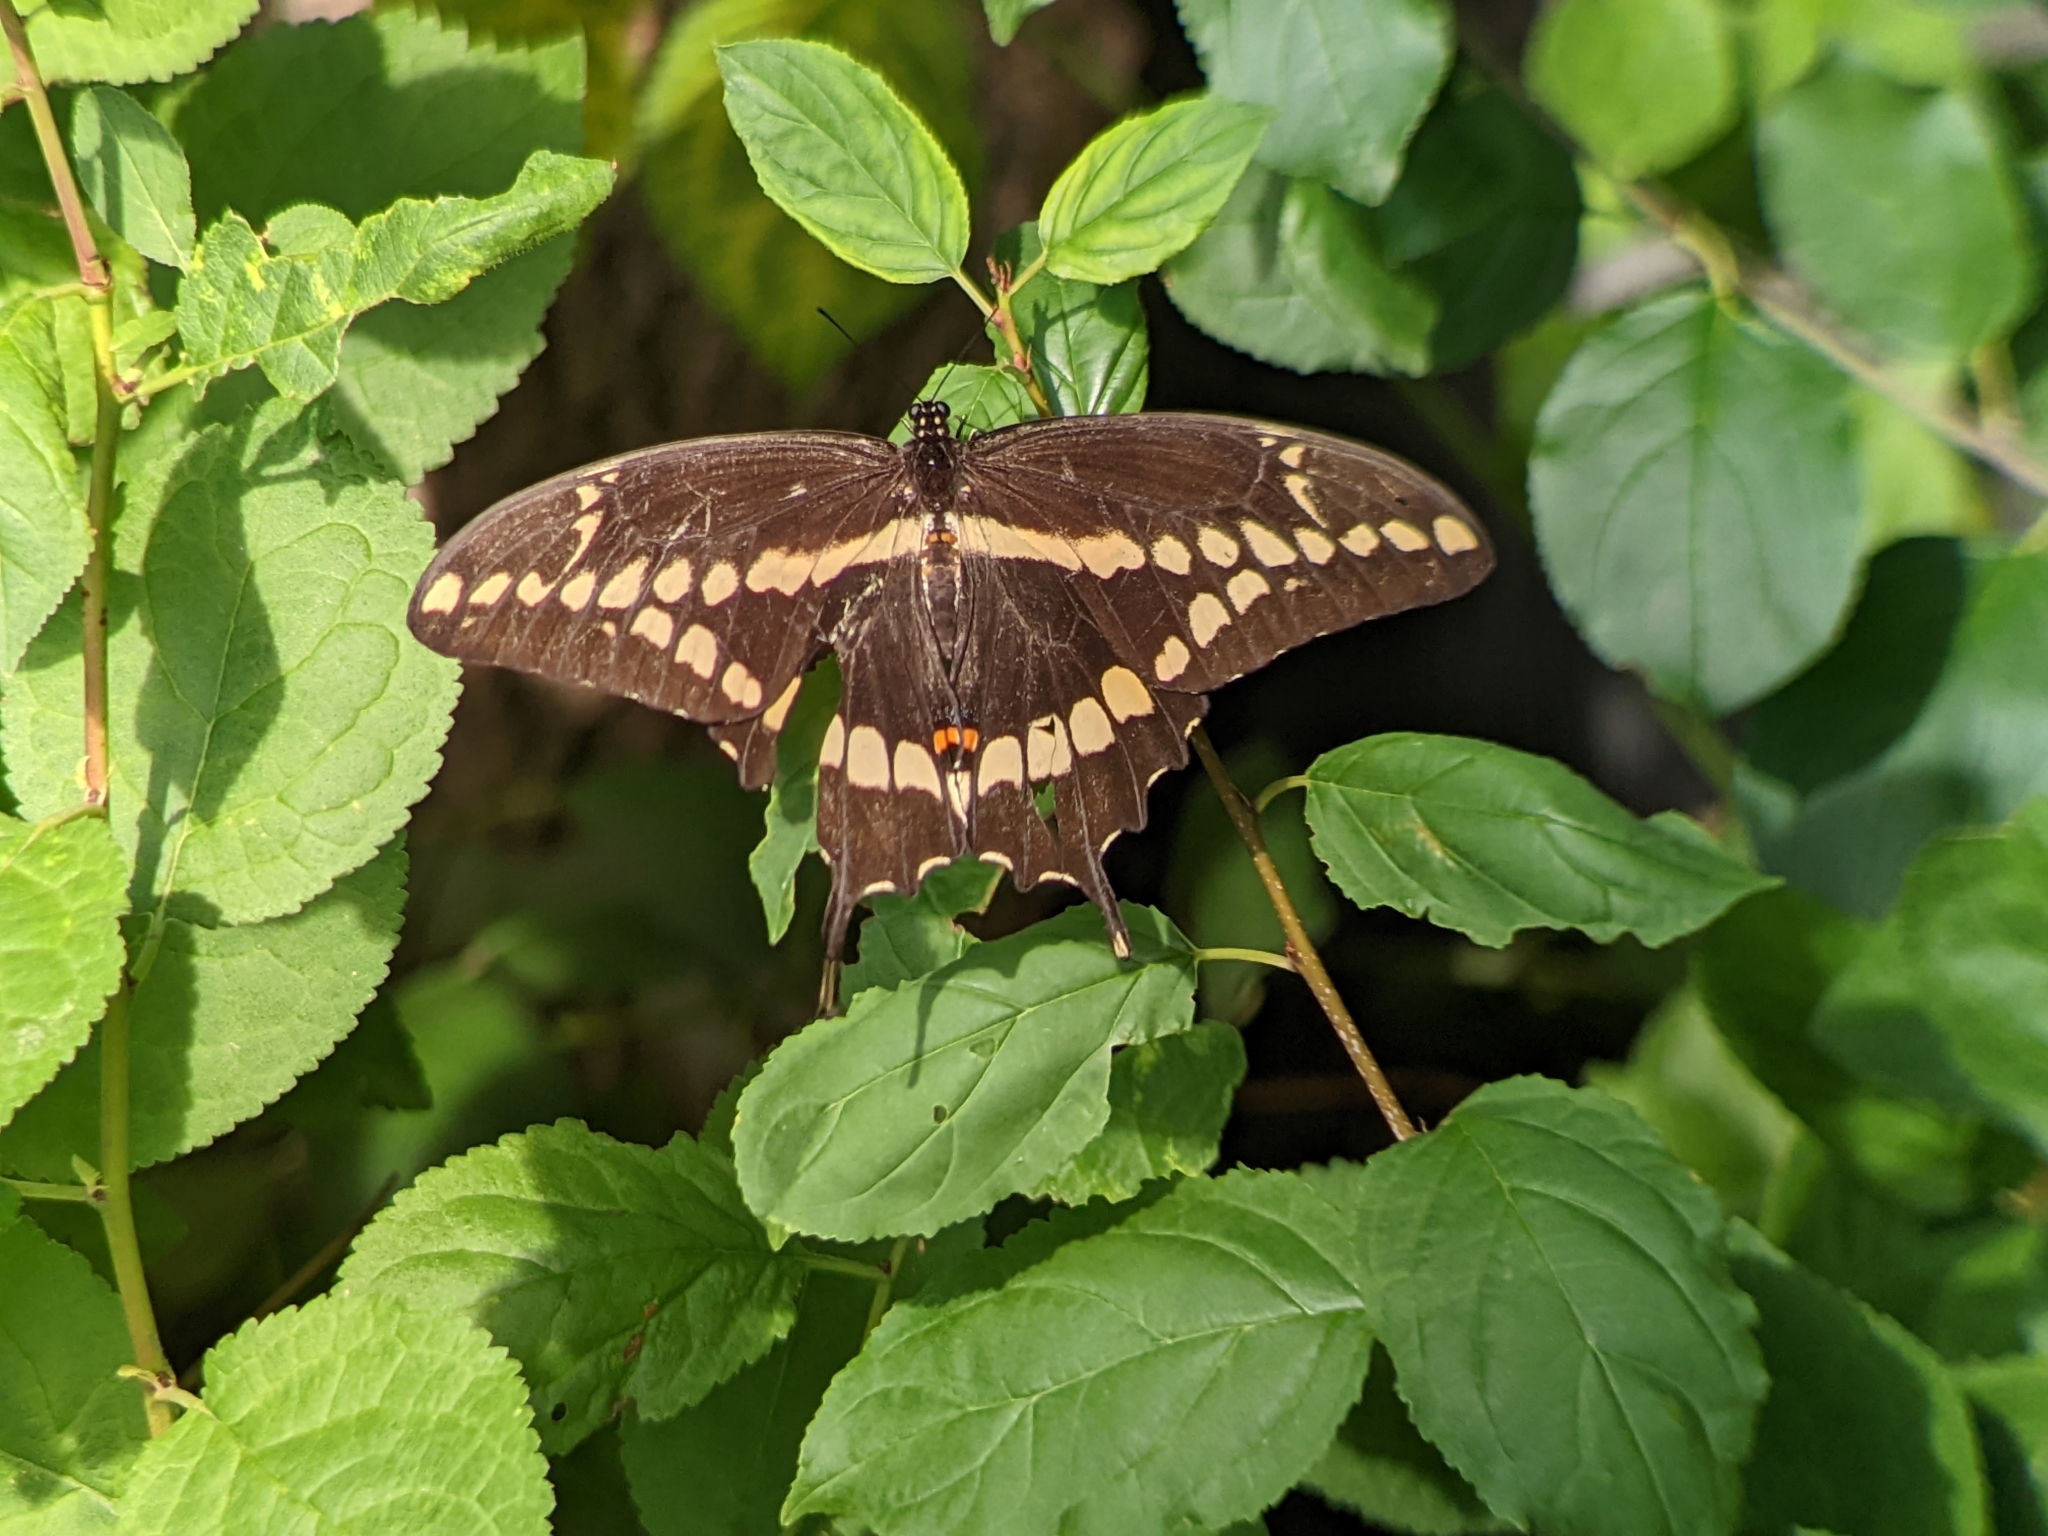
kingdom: Animalia
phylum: Arthropoda
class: Insecta
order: Lepidoptera
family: Papilionidae
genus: Papilio
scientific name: Papilio cresphontes
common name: Giant swallowtail
